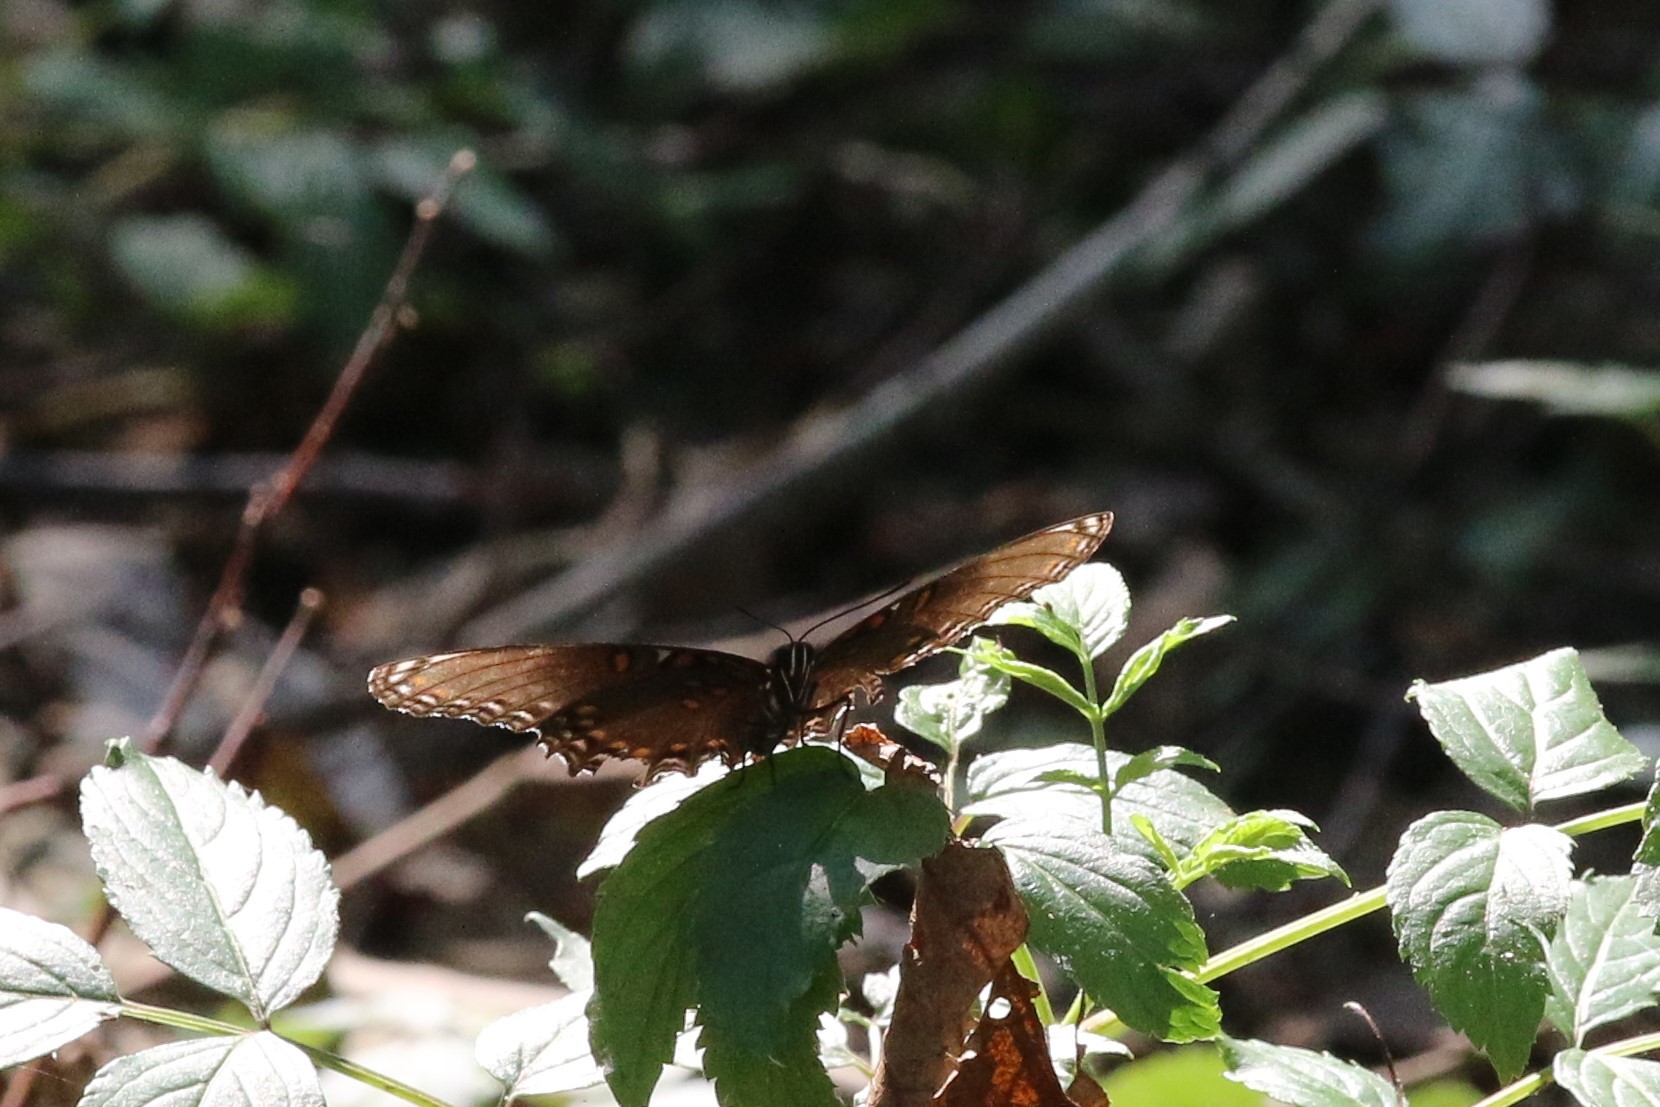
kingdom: Animalia
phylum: Arthropoda
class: Insecta
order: Lepidoptera
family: Nymphalidae
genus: Limenitis
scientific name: Limenitis astyanax
